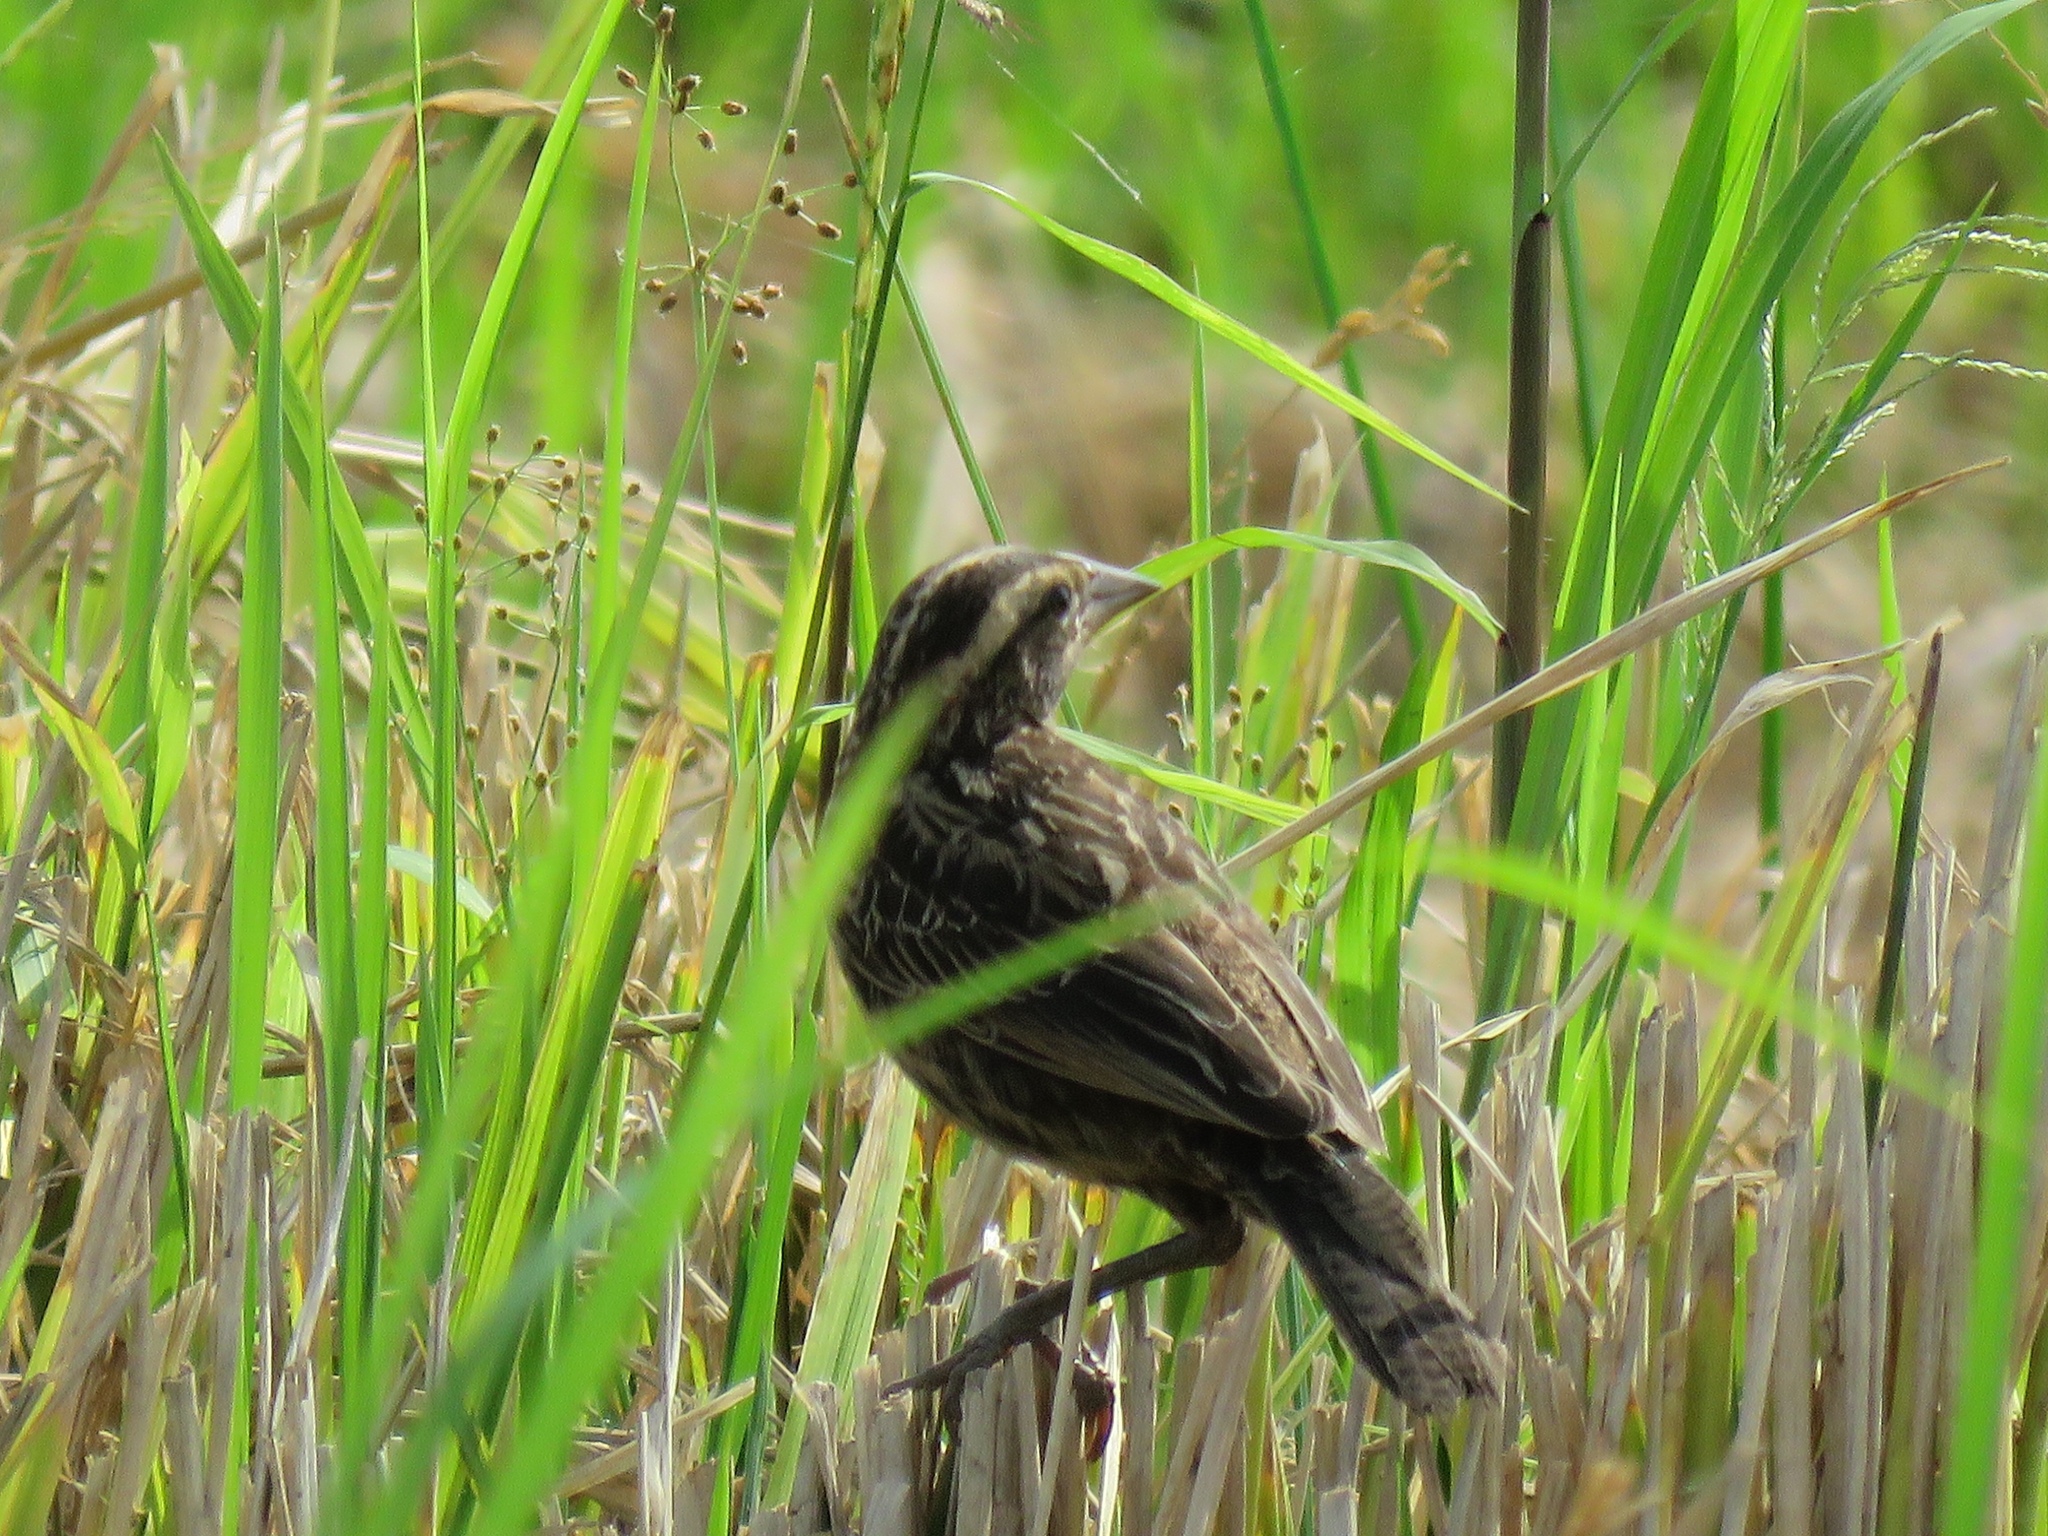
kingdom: Animalia
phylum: Chordata
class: Aves
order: Passeriformes
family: Icteridae
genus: Sturnella
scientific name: Sturnella militaris
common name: Red-breasted blackbird
